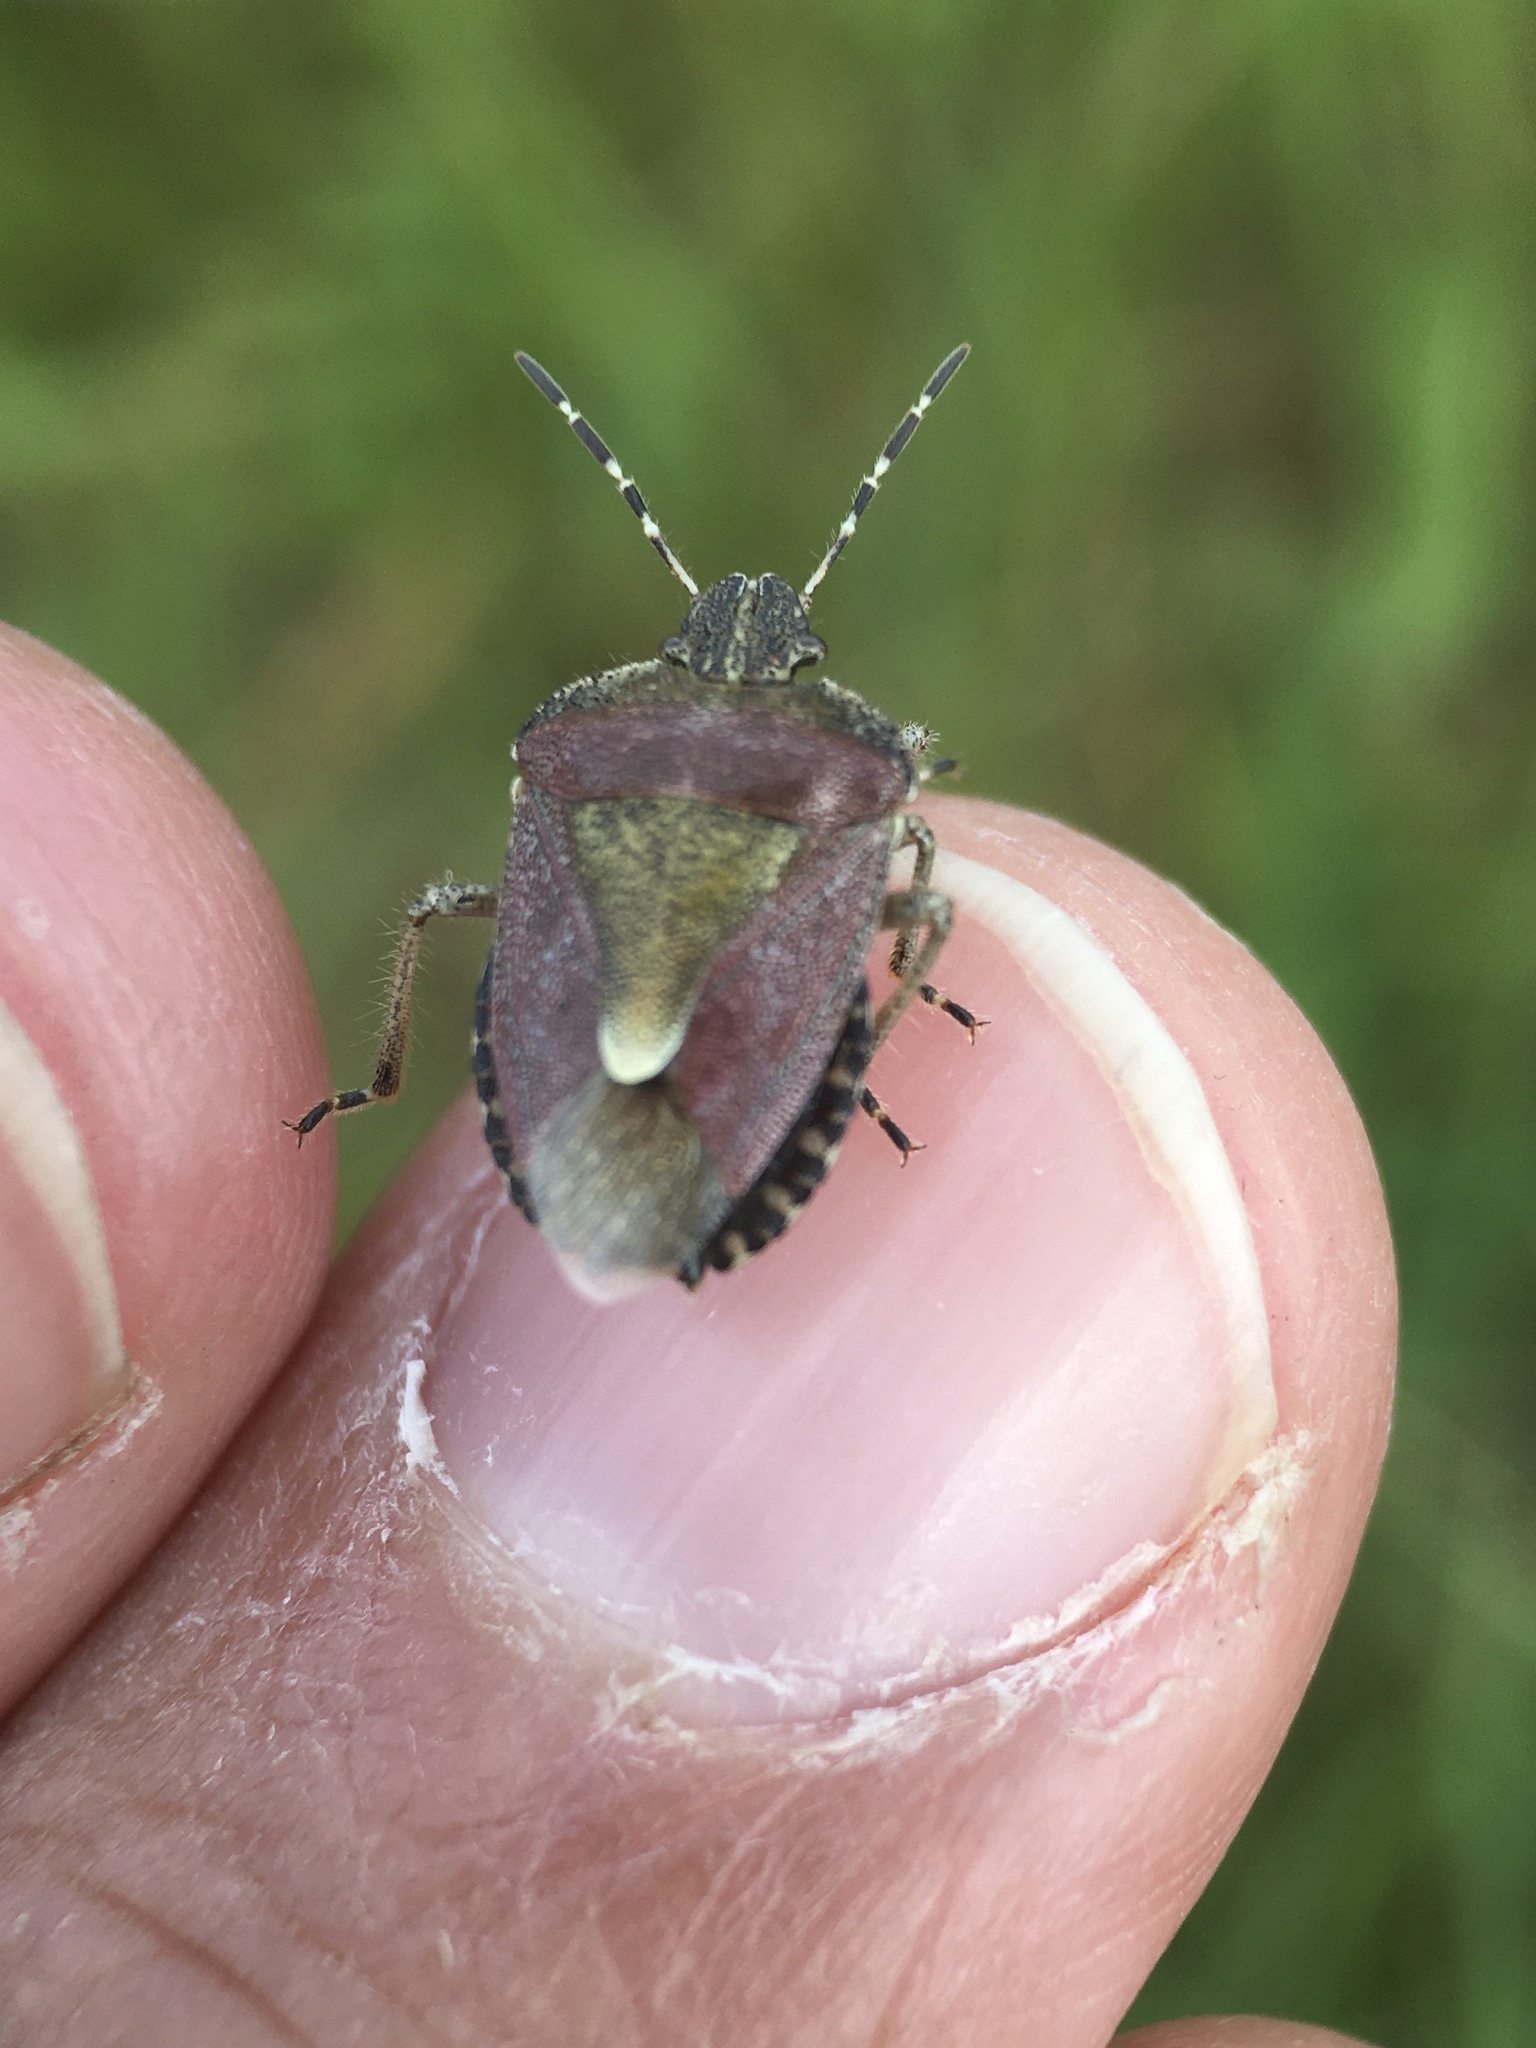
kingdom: Animalia
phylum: Arthropoda
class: Insecta
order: Hemiptera
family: Pentatomidae
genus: Dolycoris
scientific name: Dolycoris baccarum
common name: Sloe bug
